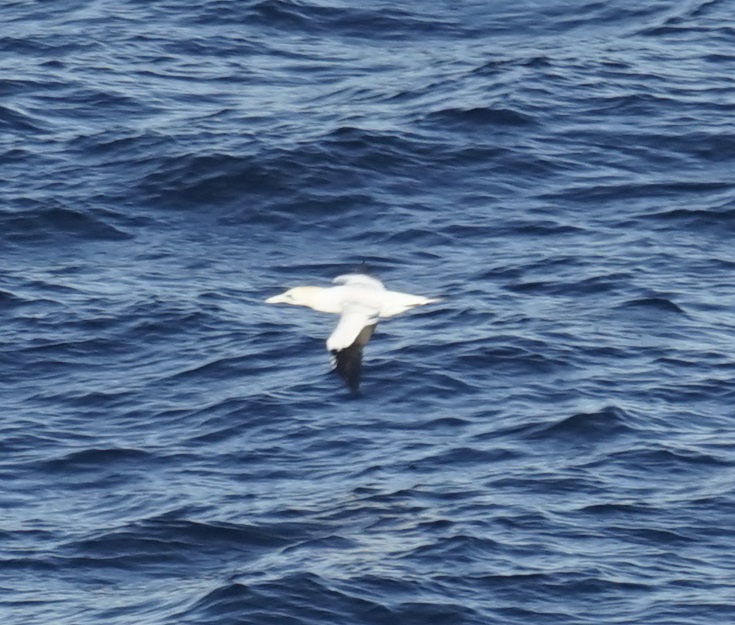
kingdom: Animalia
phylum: Chordata
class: Aves
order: Suliformes
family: Sulidae
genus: Morus
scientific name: Morus serrator
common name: Australasian gannet
